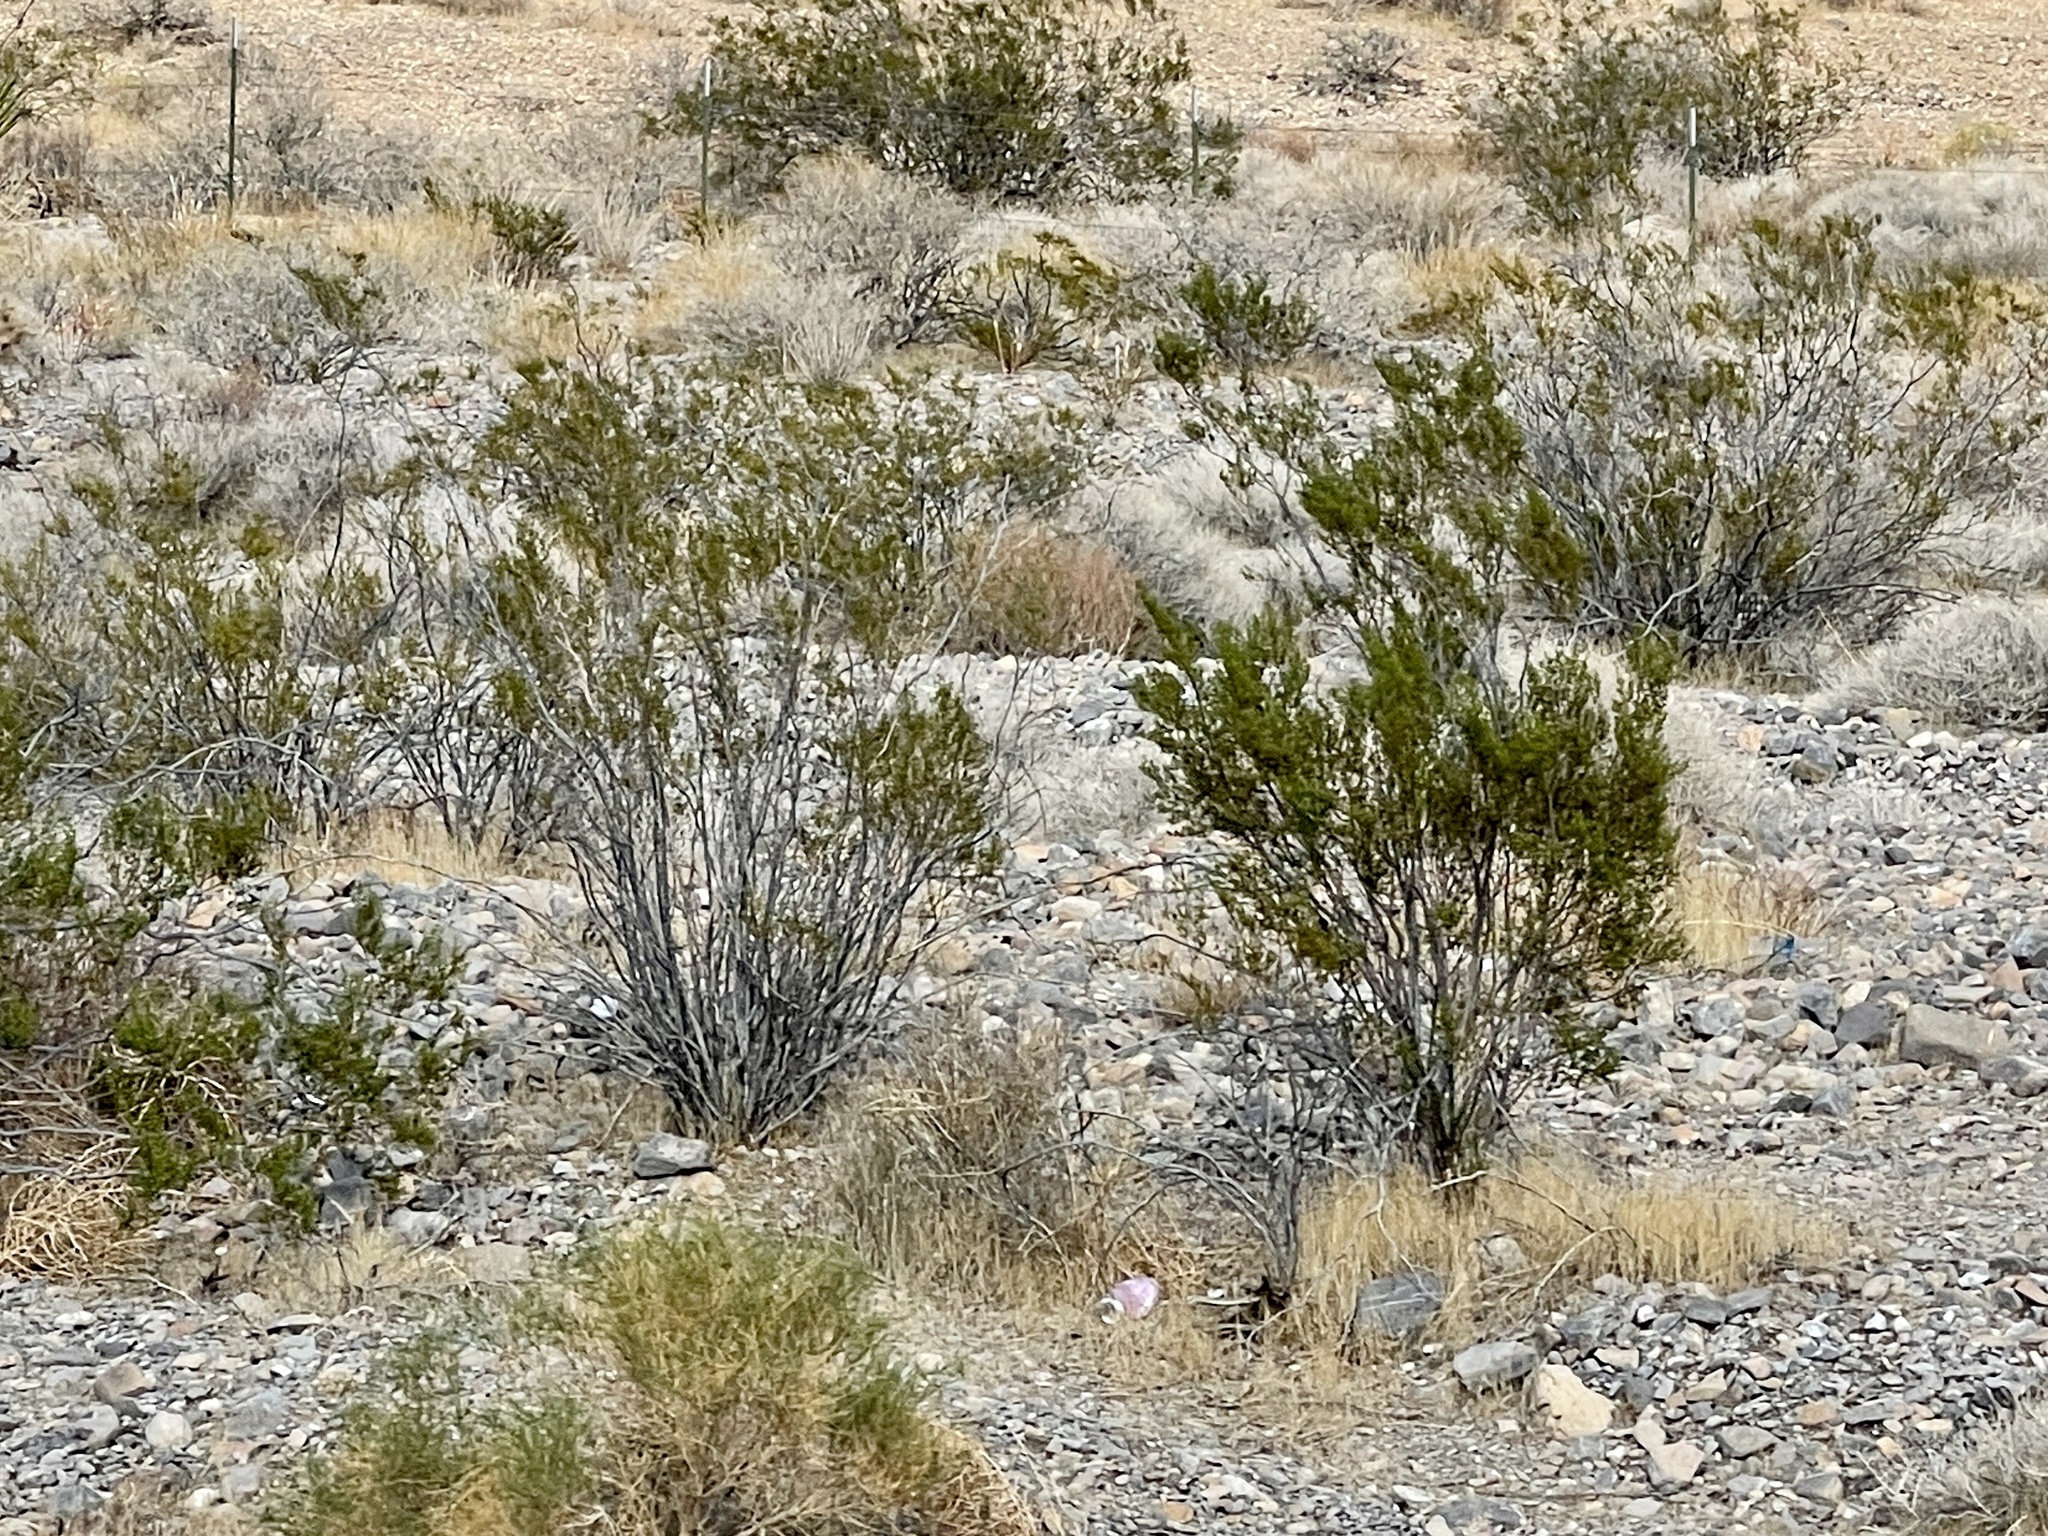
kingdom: Plantae
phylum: Tracheophyta
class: Magnoliopsida
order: Zygophyllales
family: Zygophyllaceae
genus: Larrea
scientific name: Larrea tridentata
